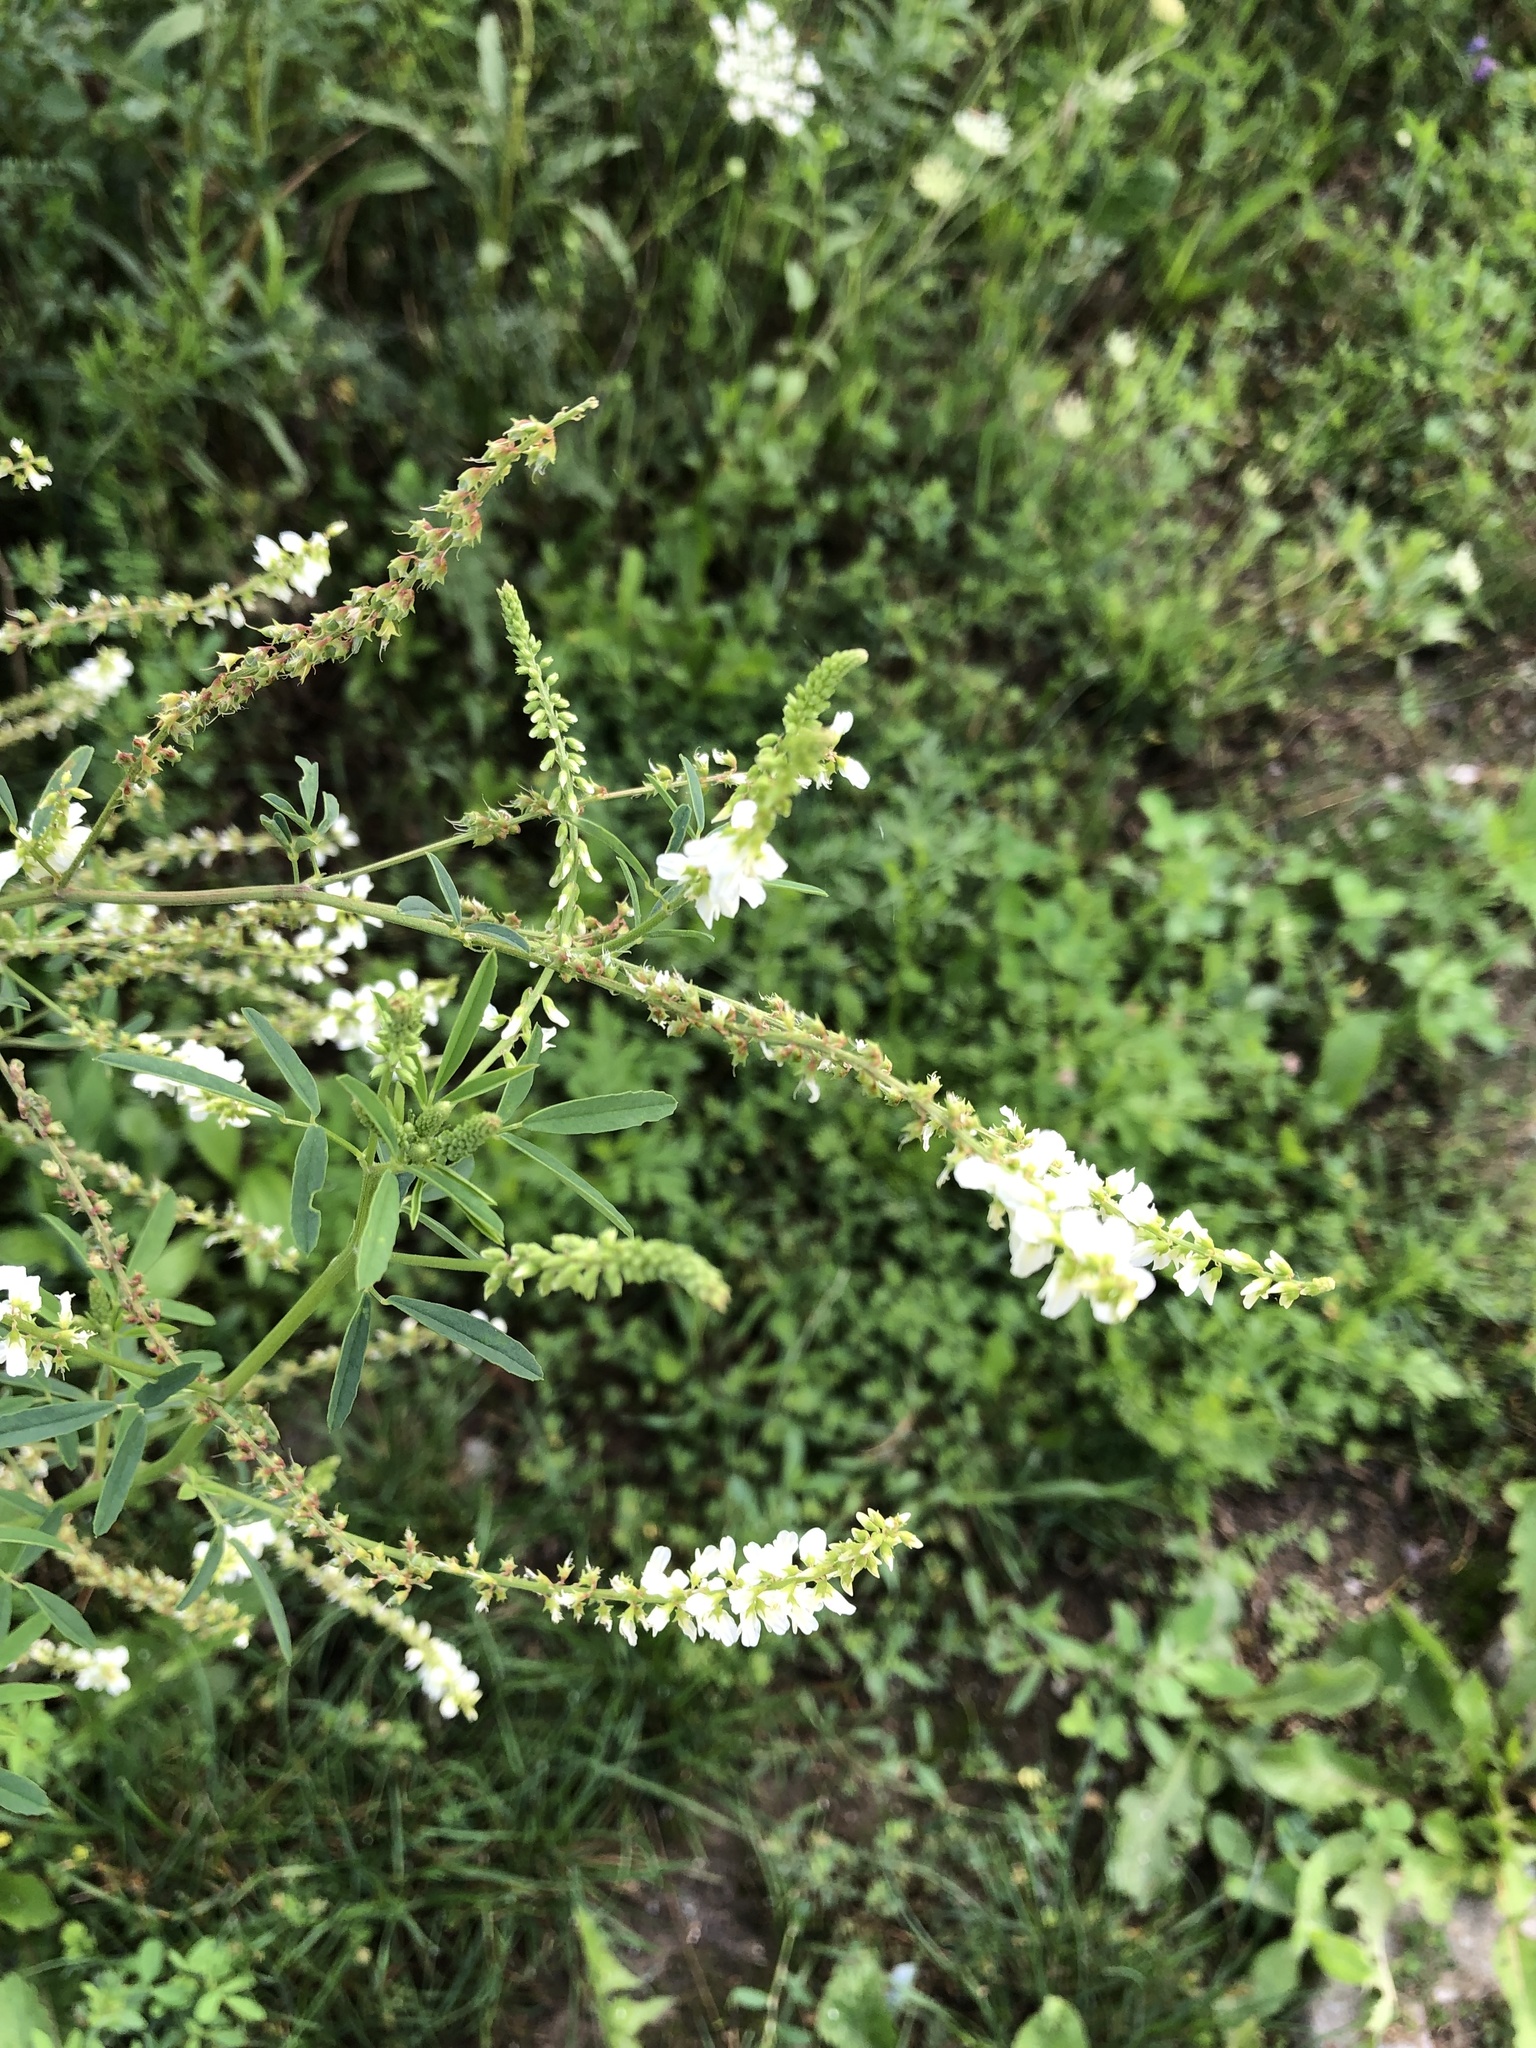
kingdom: Plantae
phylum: Tracheophyta
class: Magnoliopsida
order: Fabales
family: Fabaceae
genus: Melilotus
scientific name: Melilotus albus
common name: White melilot
